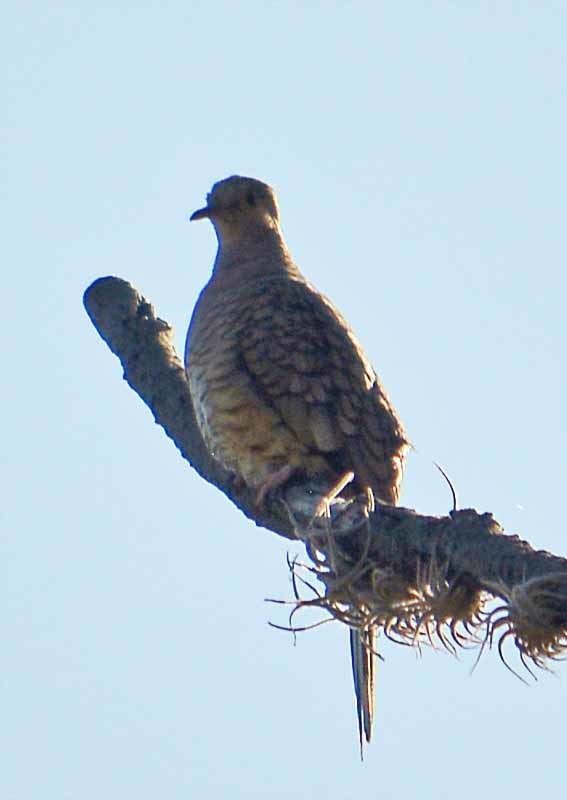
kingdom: Animalia
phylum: Chordata
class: Aves
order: Columbiformes
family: Columbidae
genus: Columbina
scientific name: Columbina inca
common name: Inca dove
